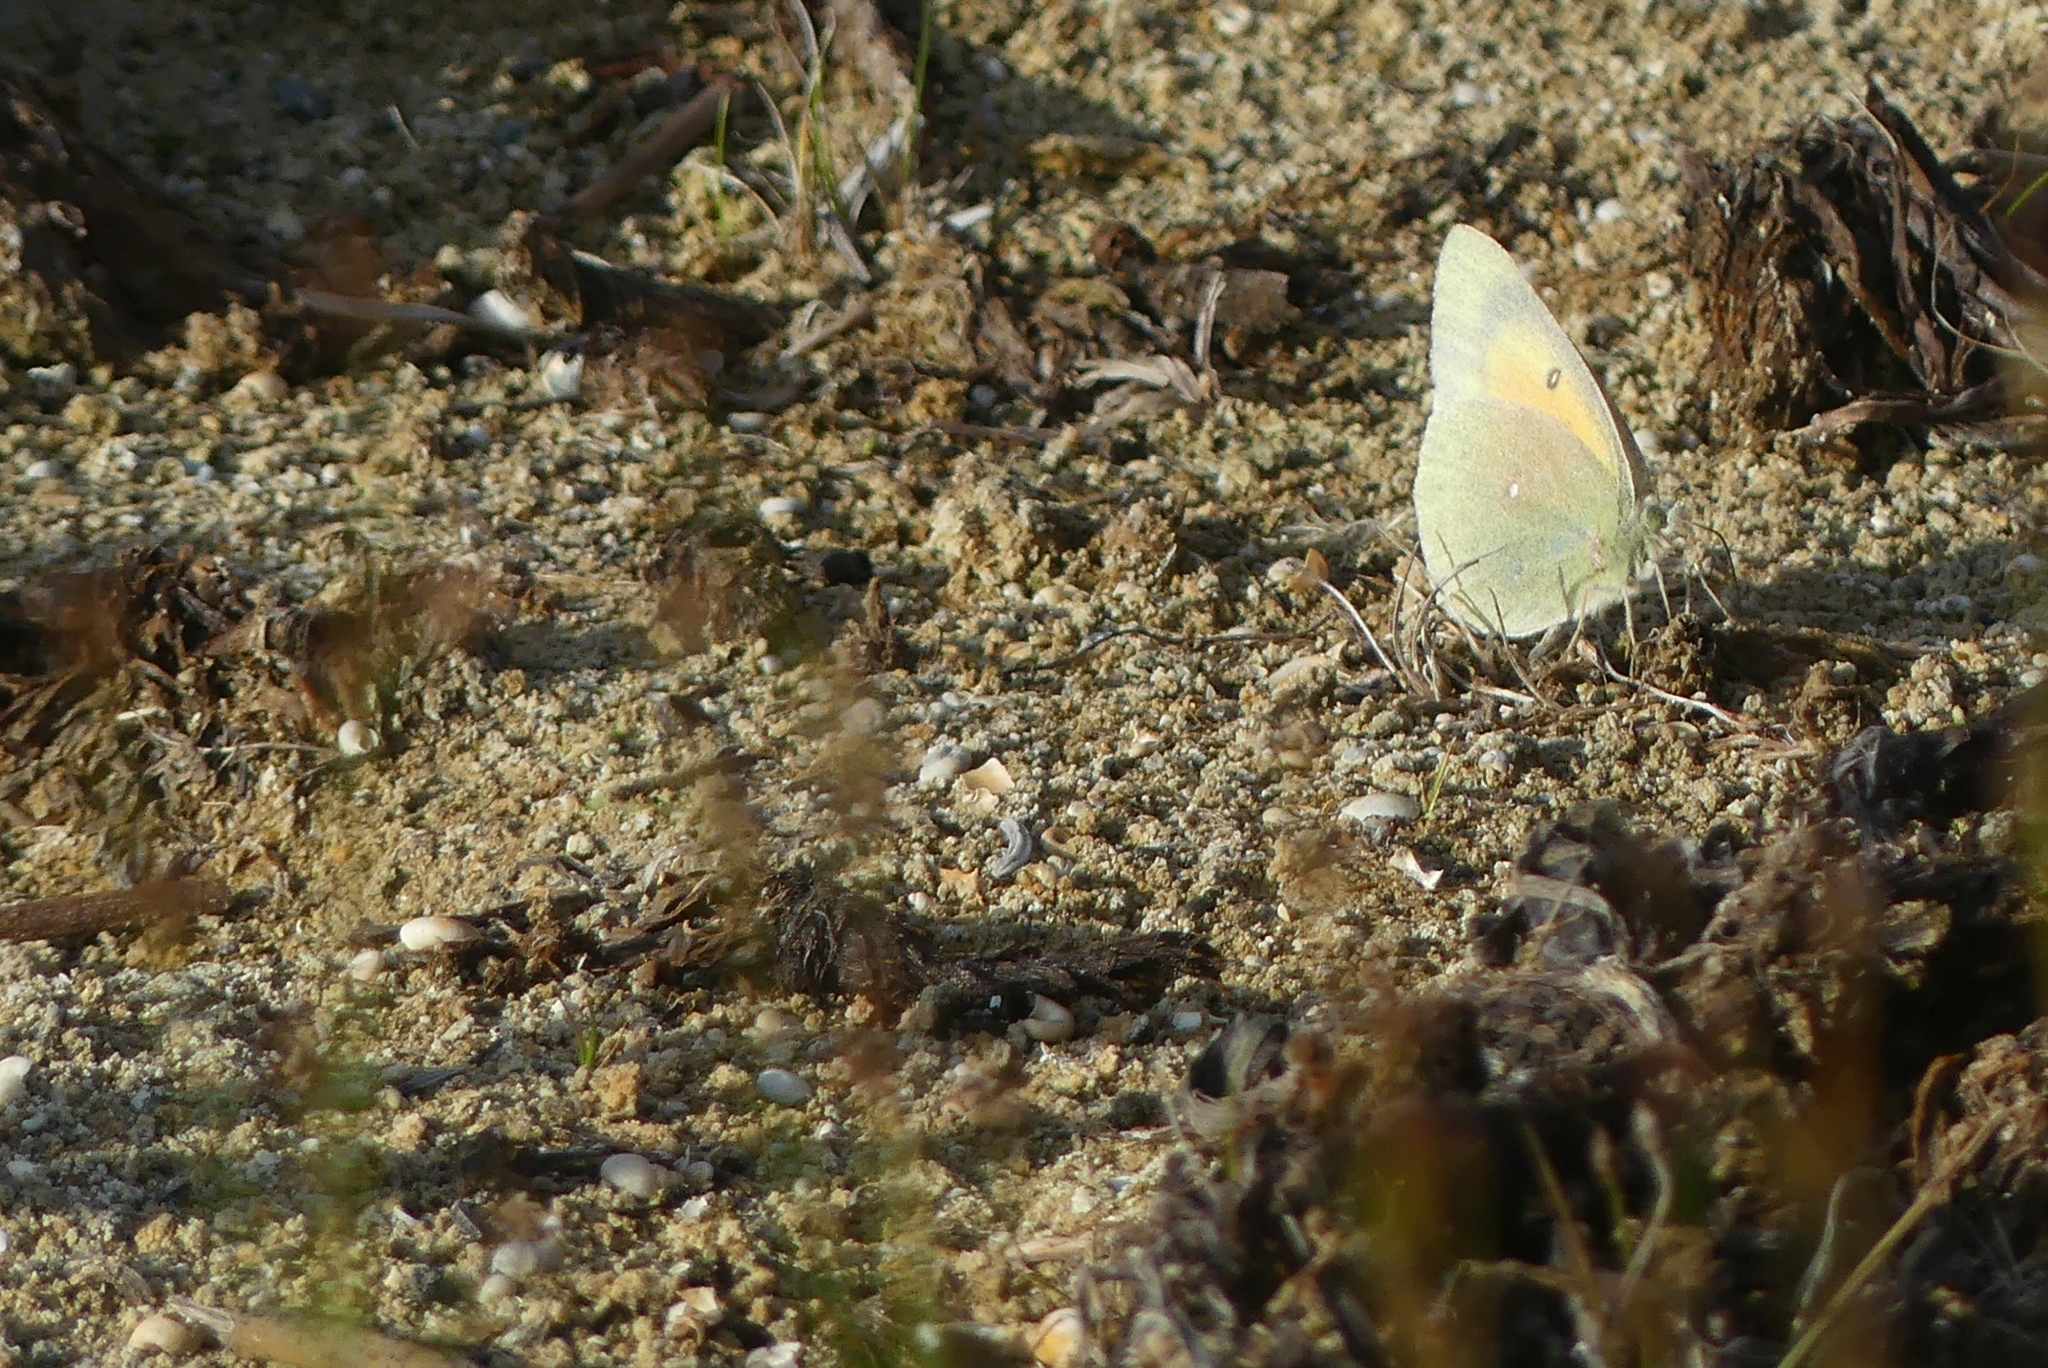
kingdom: Animalia
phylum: Arthropoda
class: Insecta
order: Lepidoptera
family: Pieridae
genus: Colias
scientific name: Colias christina
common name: Christina sulphur
